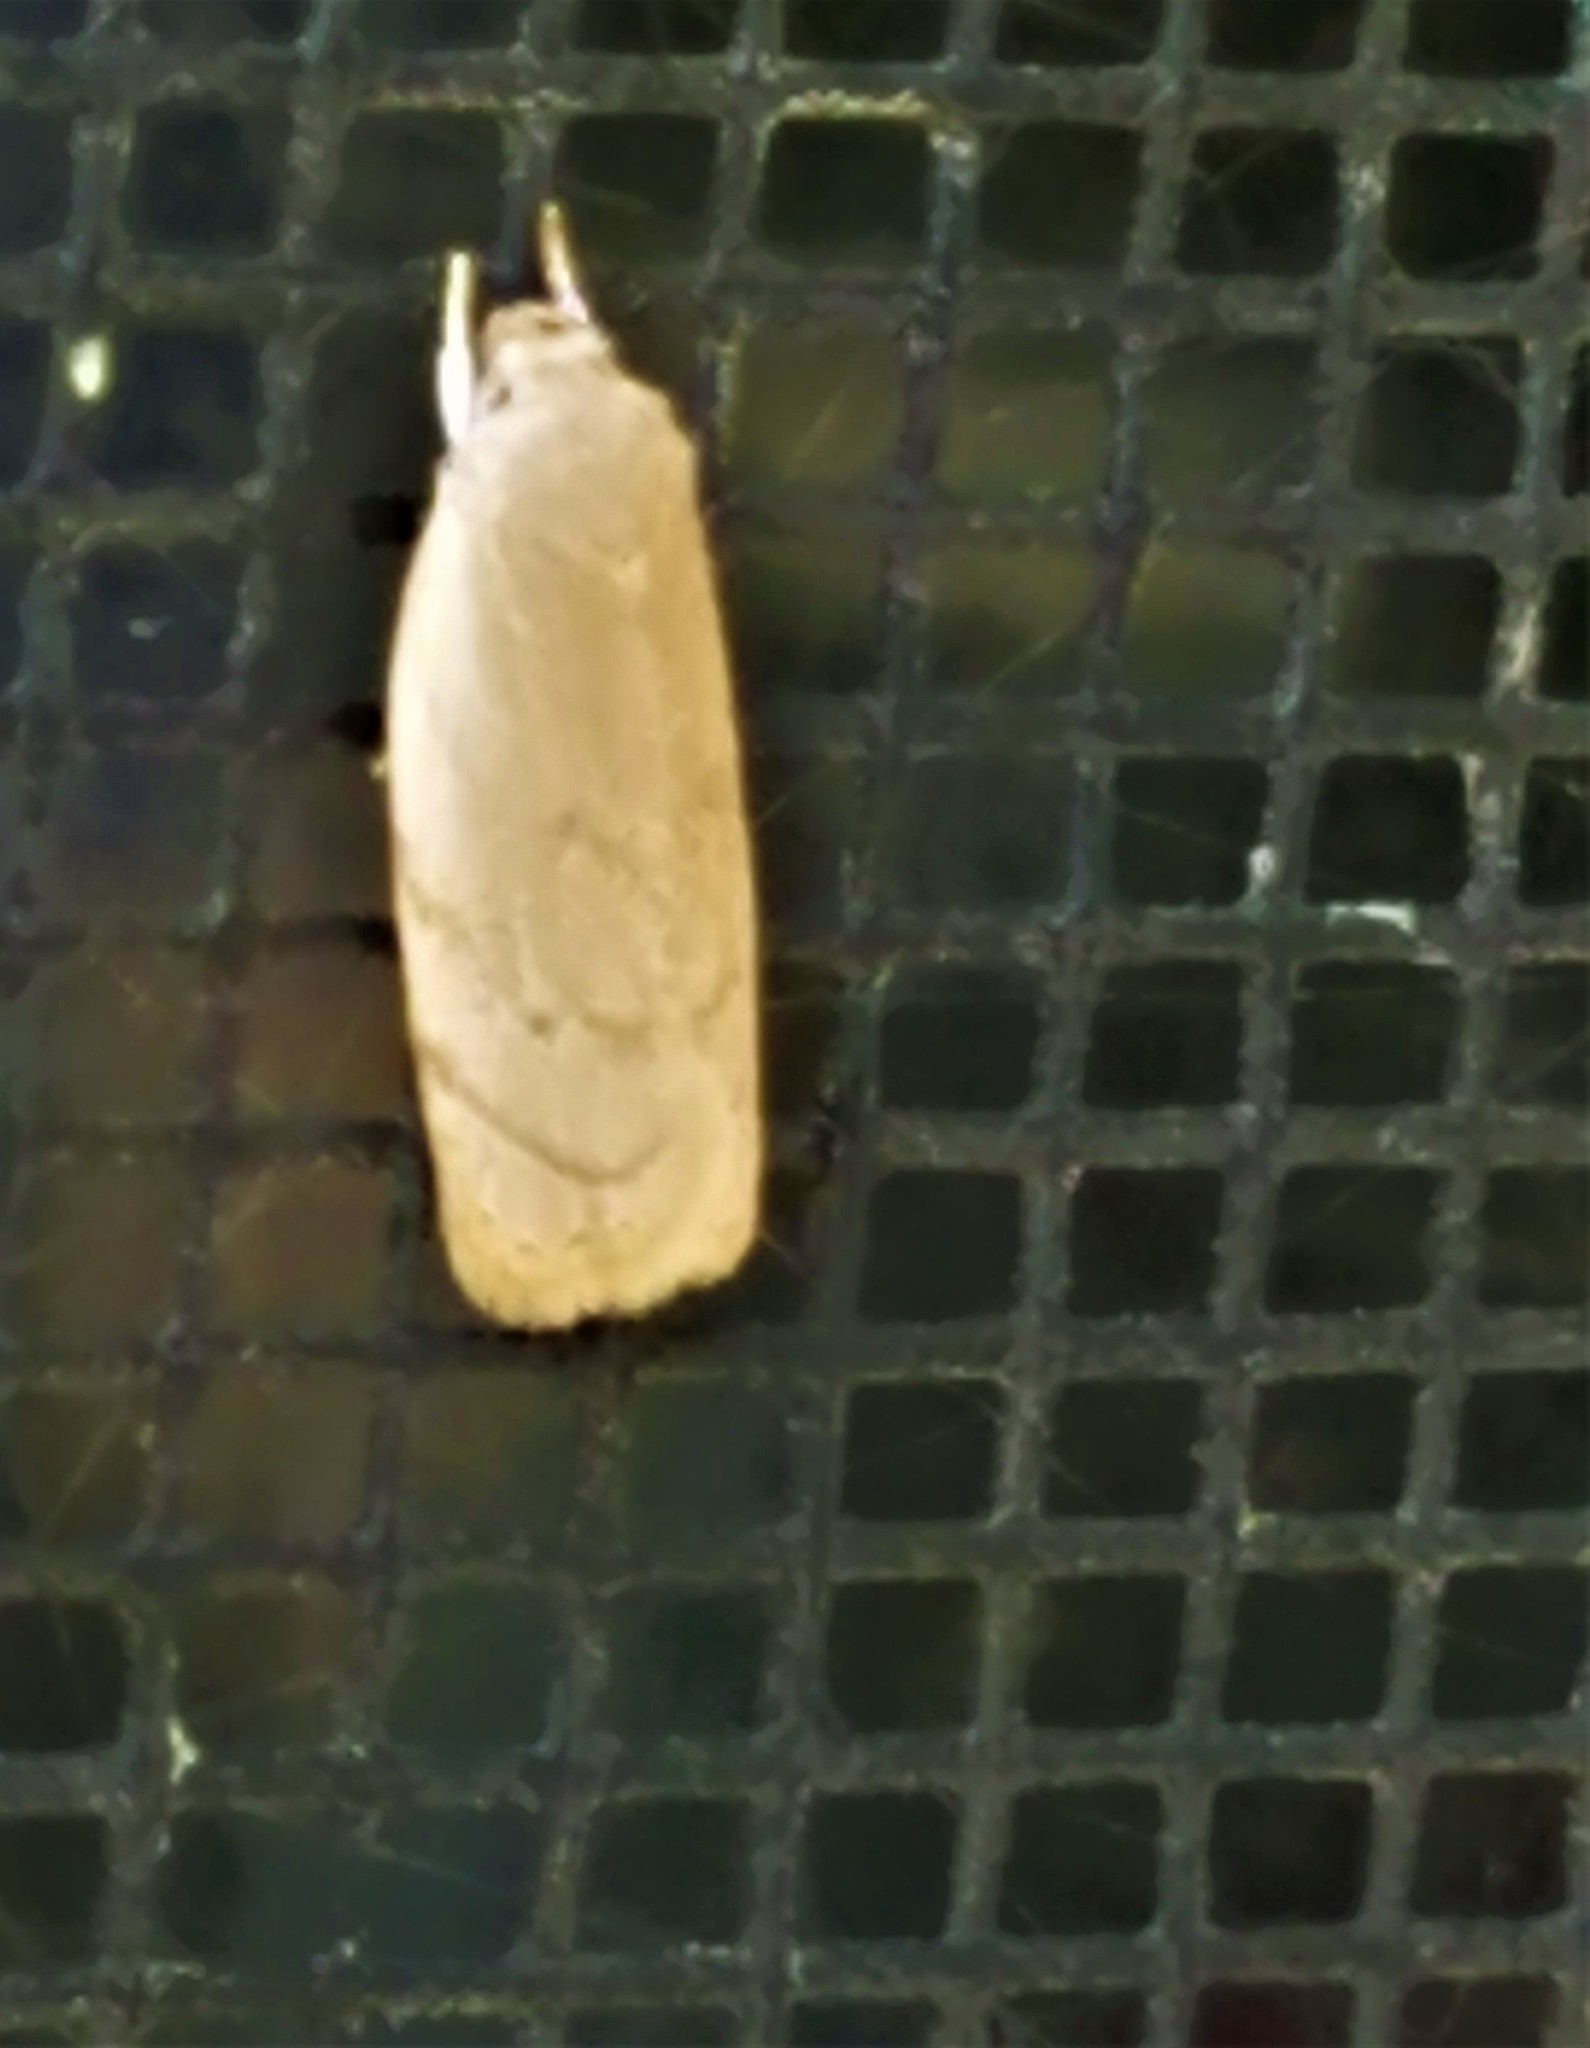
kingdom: Animalia
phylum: Arthropoda
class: Insecta
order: Lepidoptera
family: Depressariidae
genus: Antaeotricha
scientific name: Antaeotricha haesitans
